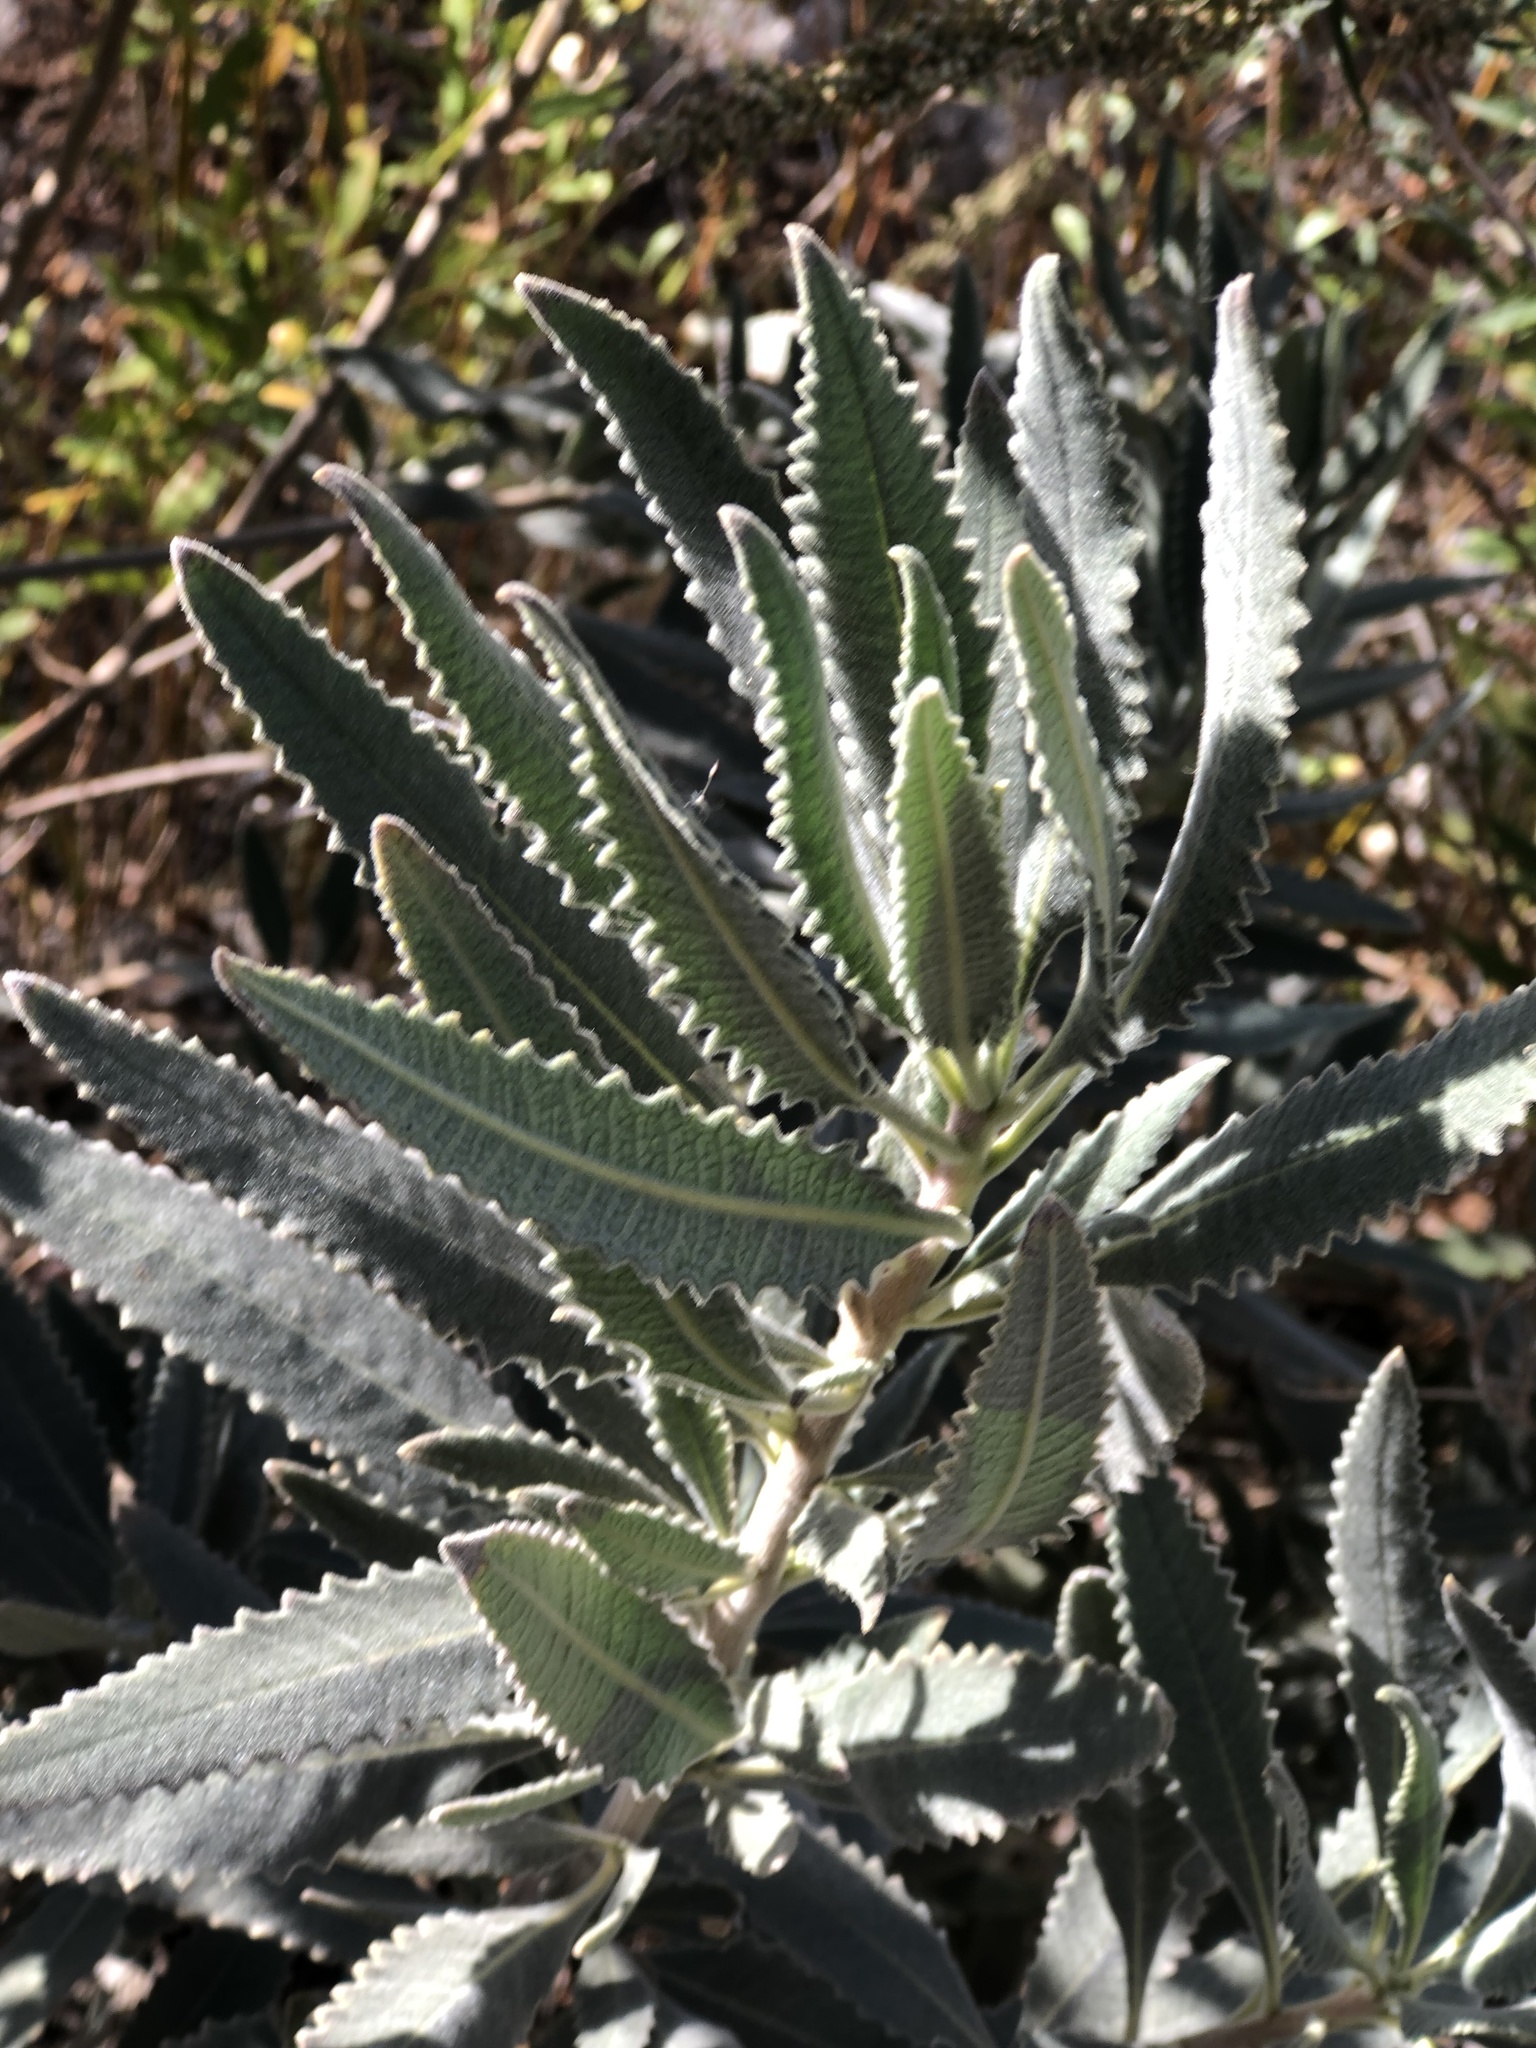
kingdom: Plantae
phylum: Tracheophyta
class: Magnoliopsida
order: Boraginales
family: Namaceae
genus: Eriodictyon
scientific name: Eriodictyon crassifolium
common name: Thick-leaf yerba-santa
